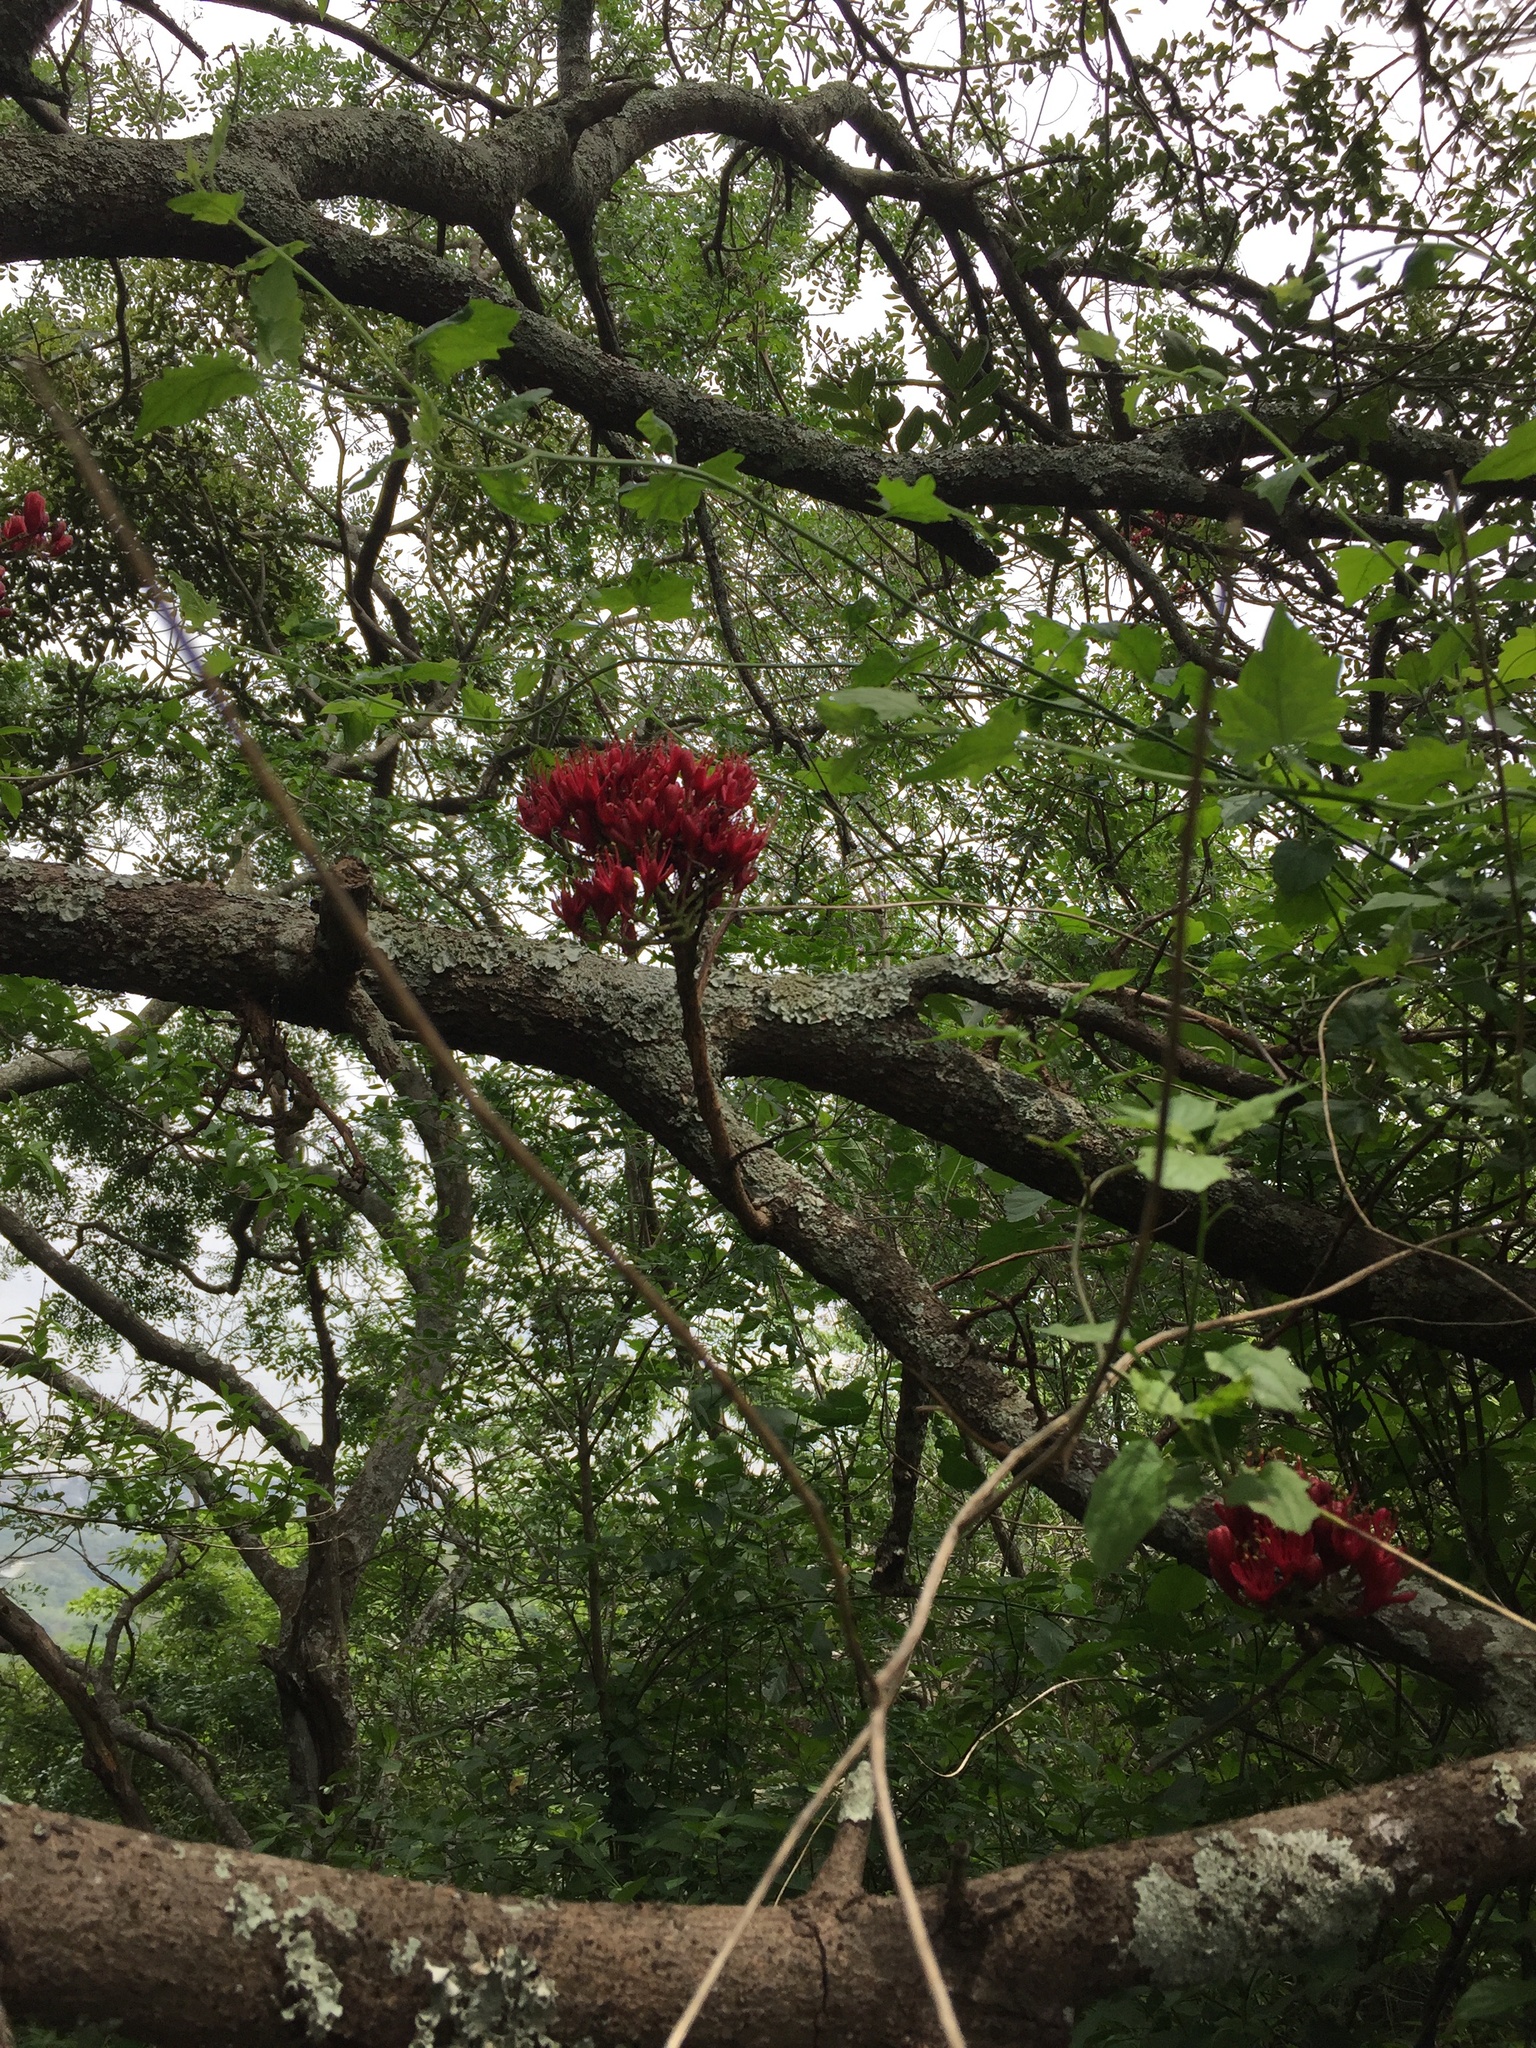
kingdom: Plantae
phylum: Tracheophyta
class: Magnoliopsida
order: Fabales
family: Fabaceae
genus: Schotia
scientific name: Schotia brachypetala
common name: Weeping boer-bean
